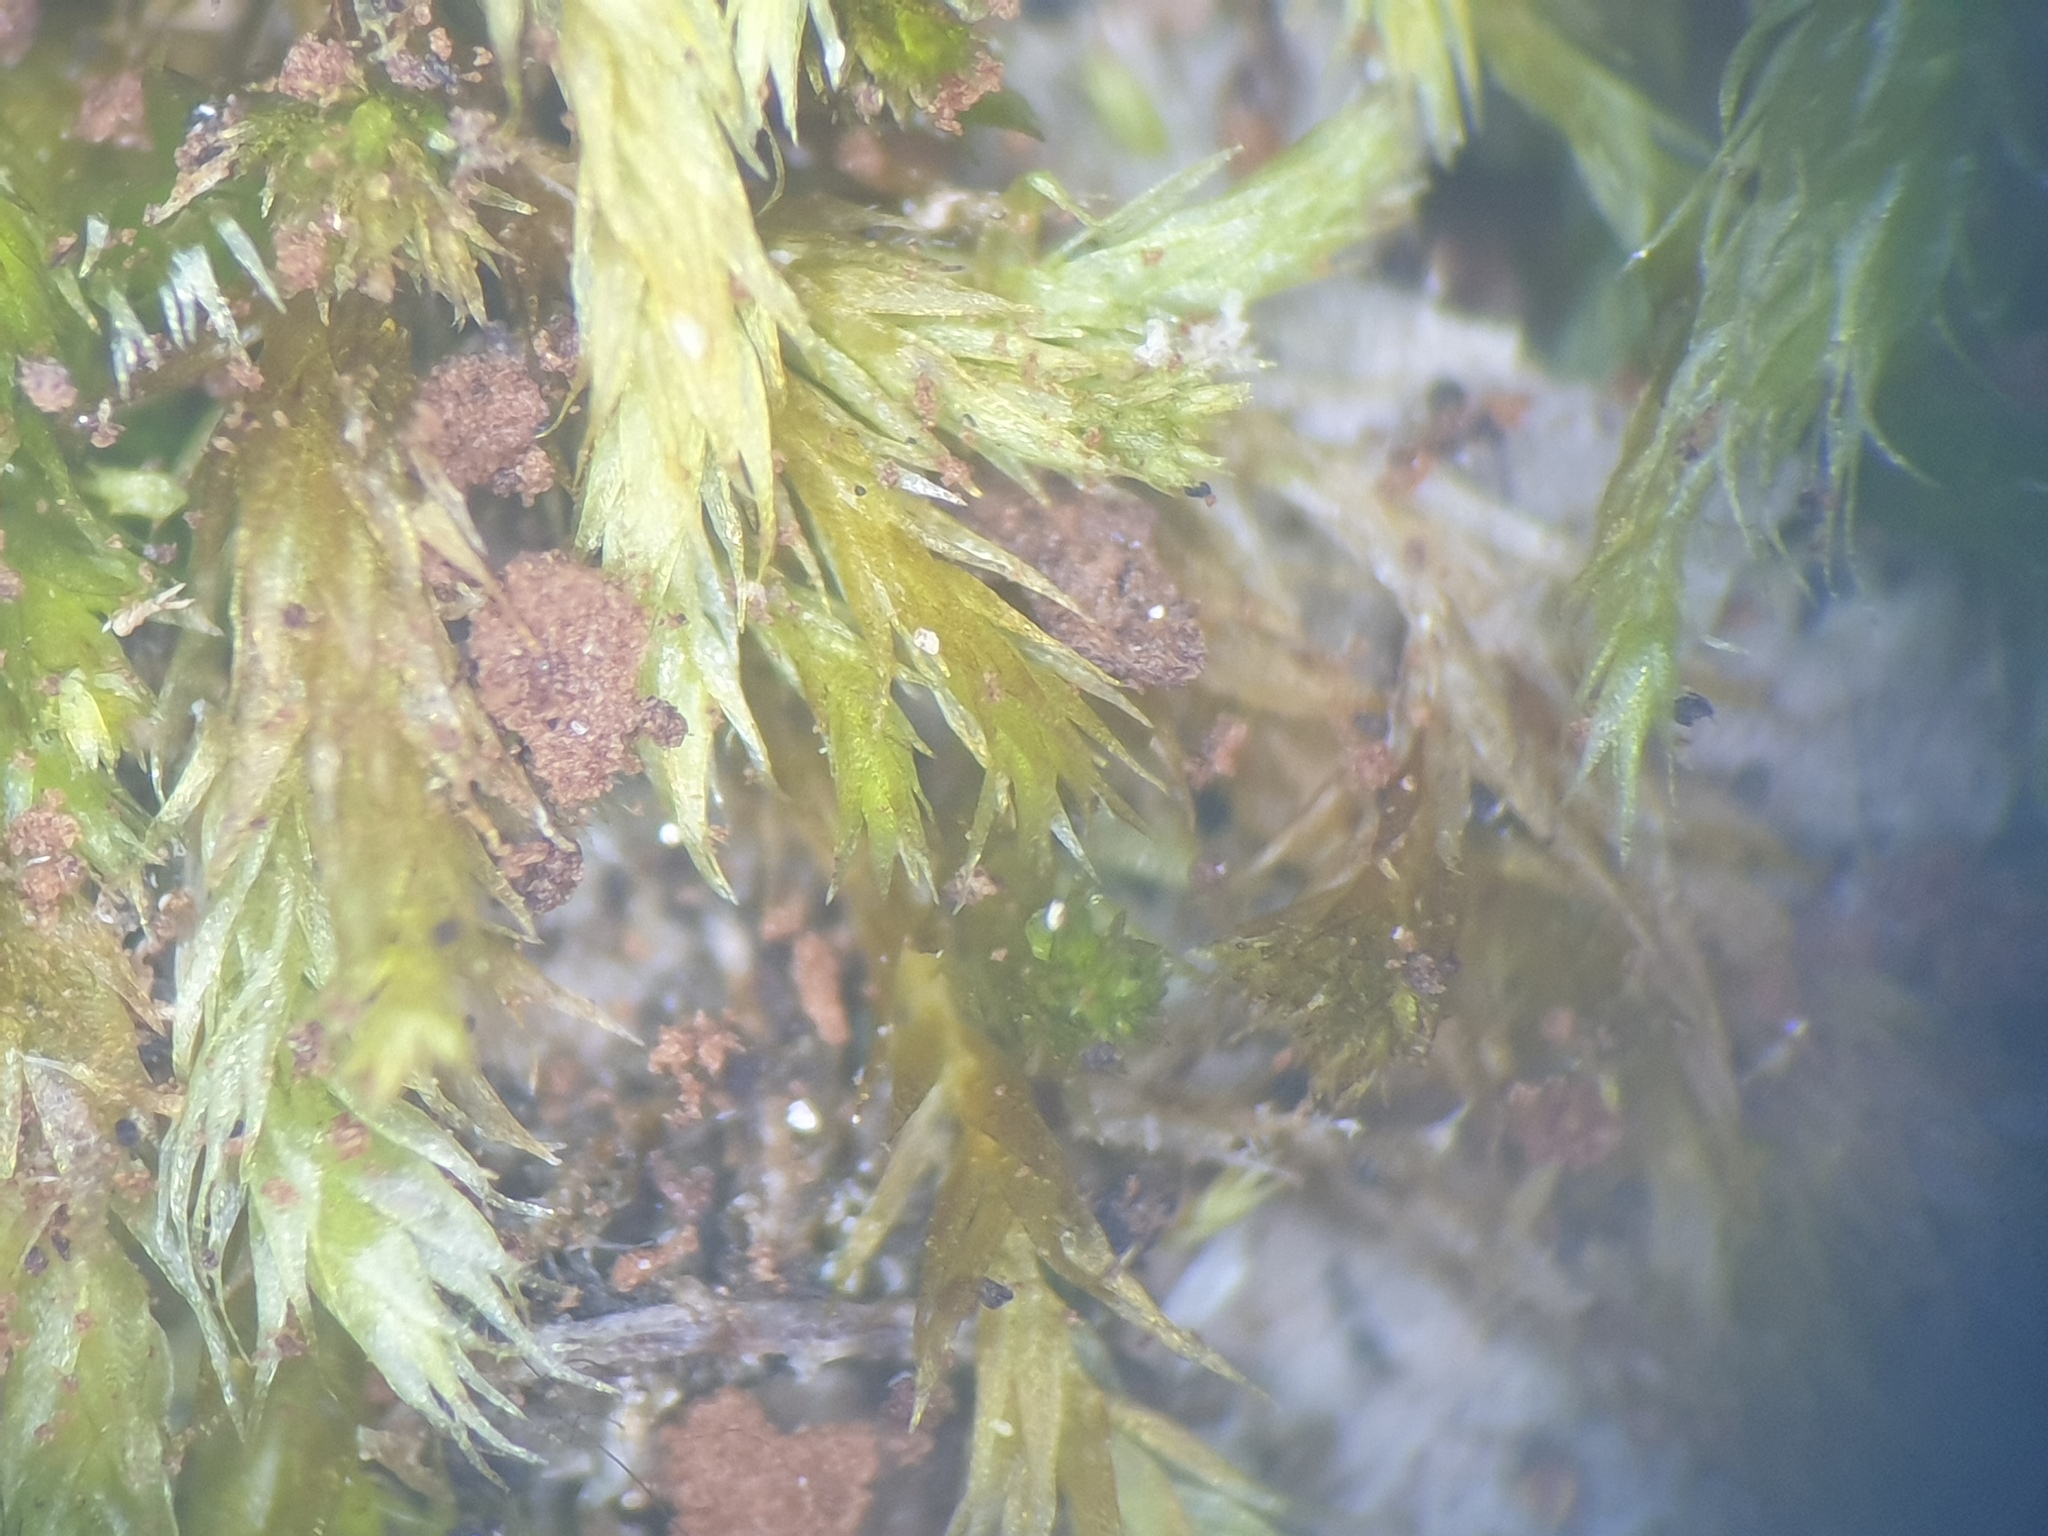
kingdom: Plantae
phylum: Bryophyta
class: Bryopsida
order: Hypnales
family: Pylaisiadelphaceae
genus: Platygyrium
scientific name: Platygyrium repens
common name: Flat-brocade moss
